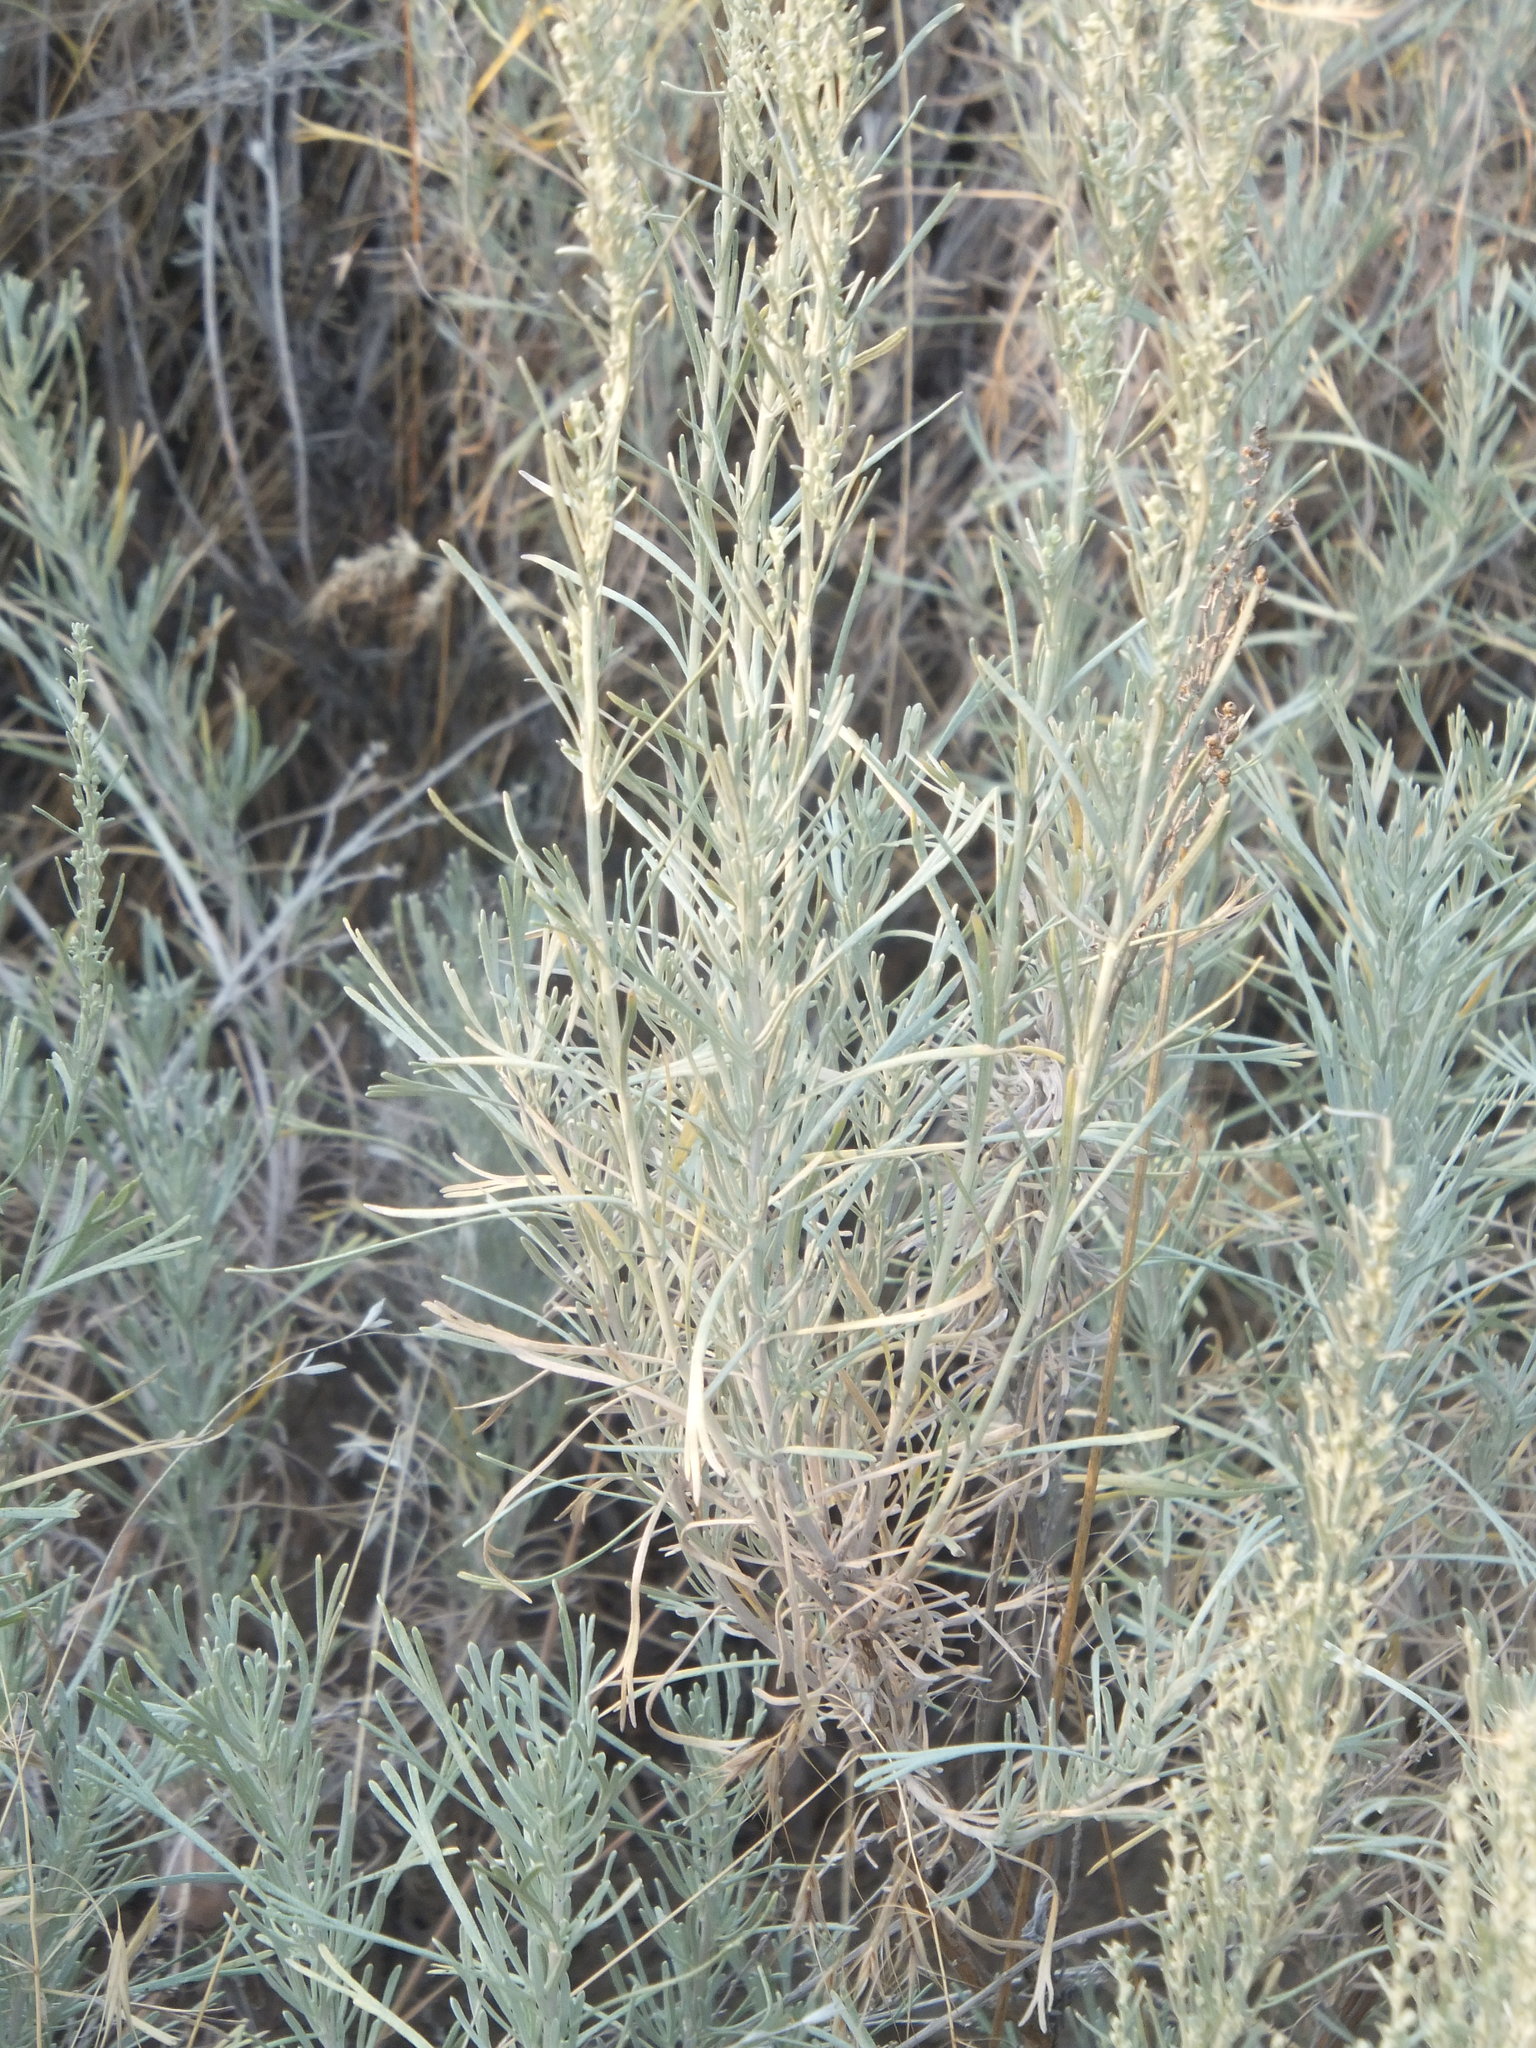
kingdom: Plantae
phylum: Tracheophyta
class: Magnoliopsida
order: Asterales
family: Asteraceae
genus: Artemisia
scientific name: Artemisia tripartita
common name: Three-tip sagebrush
